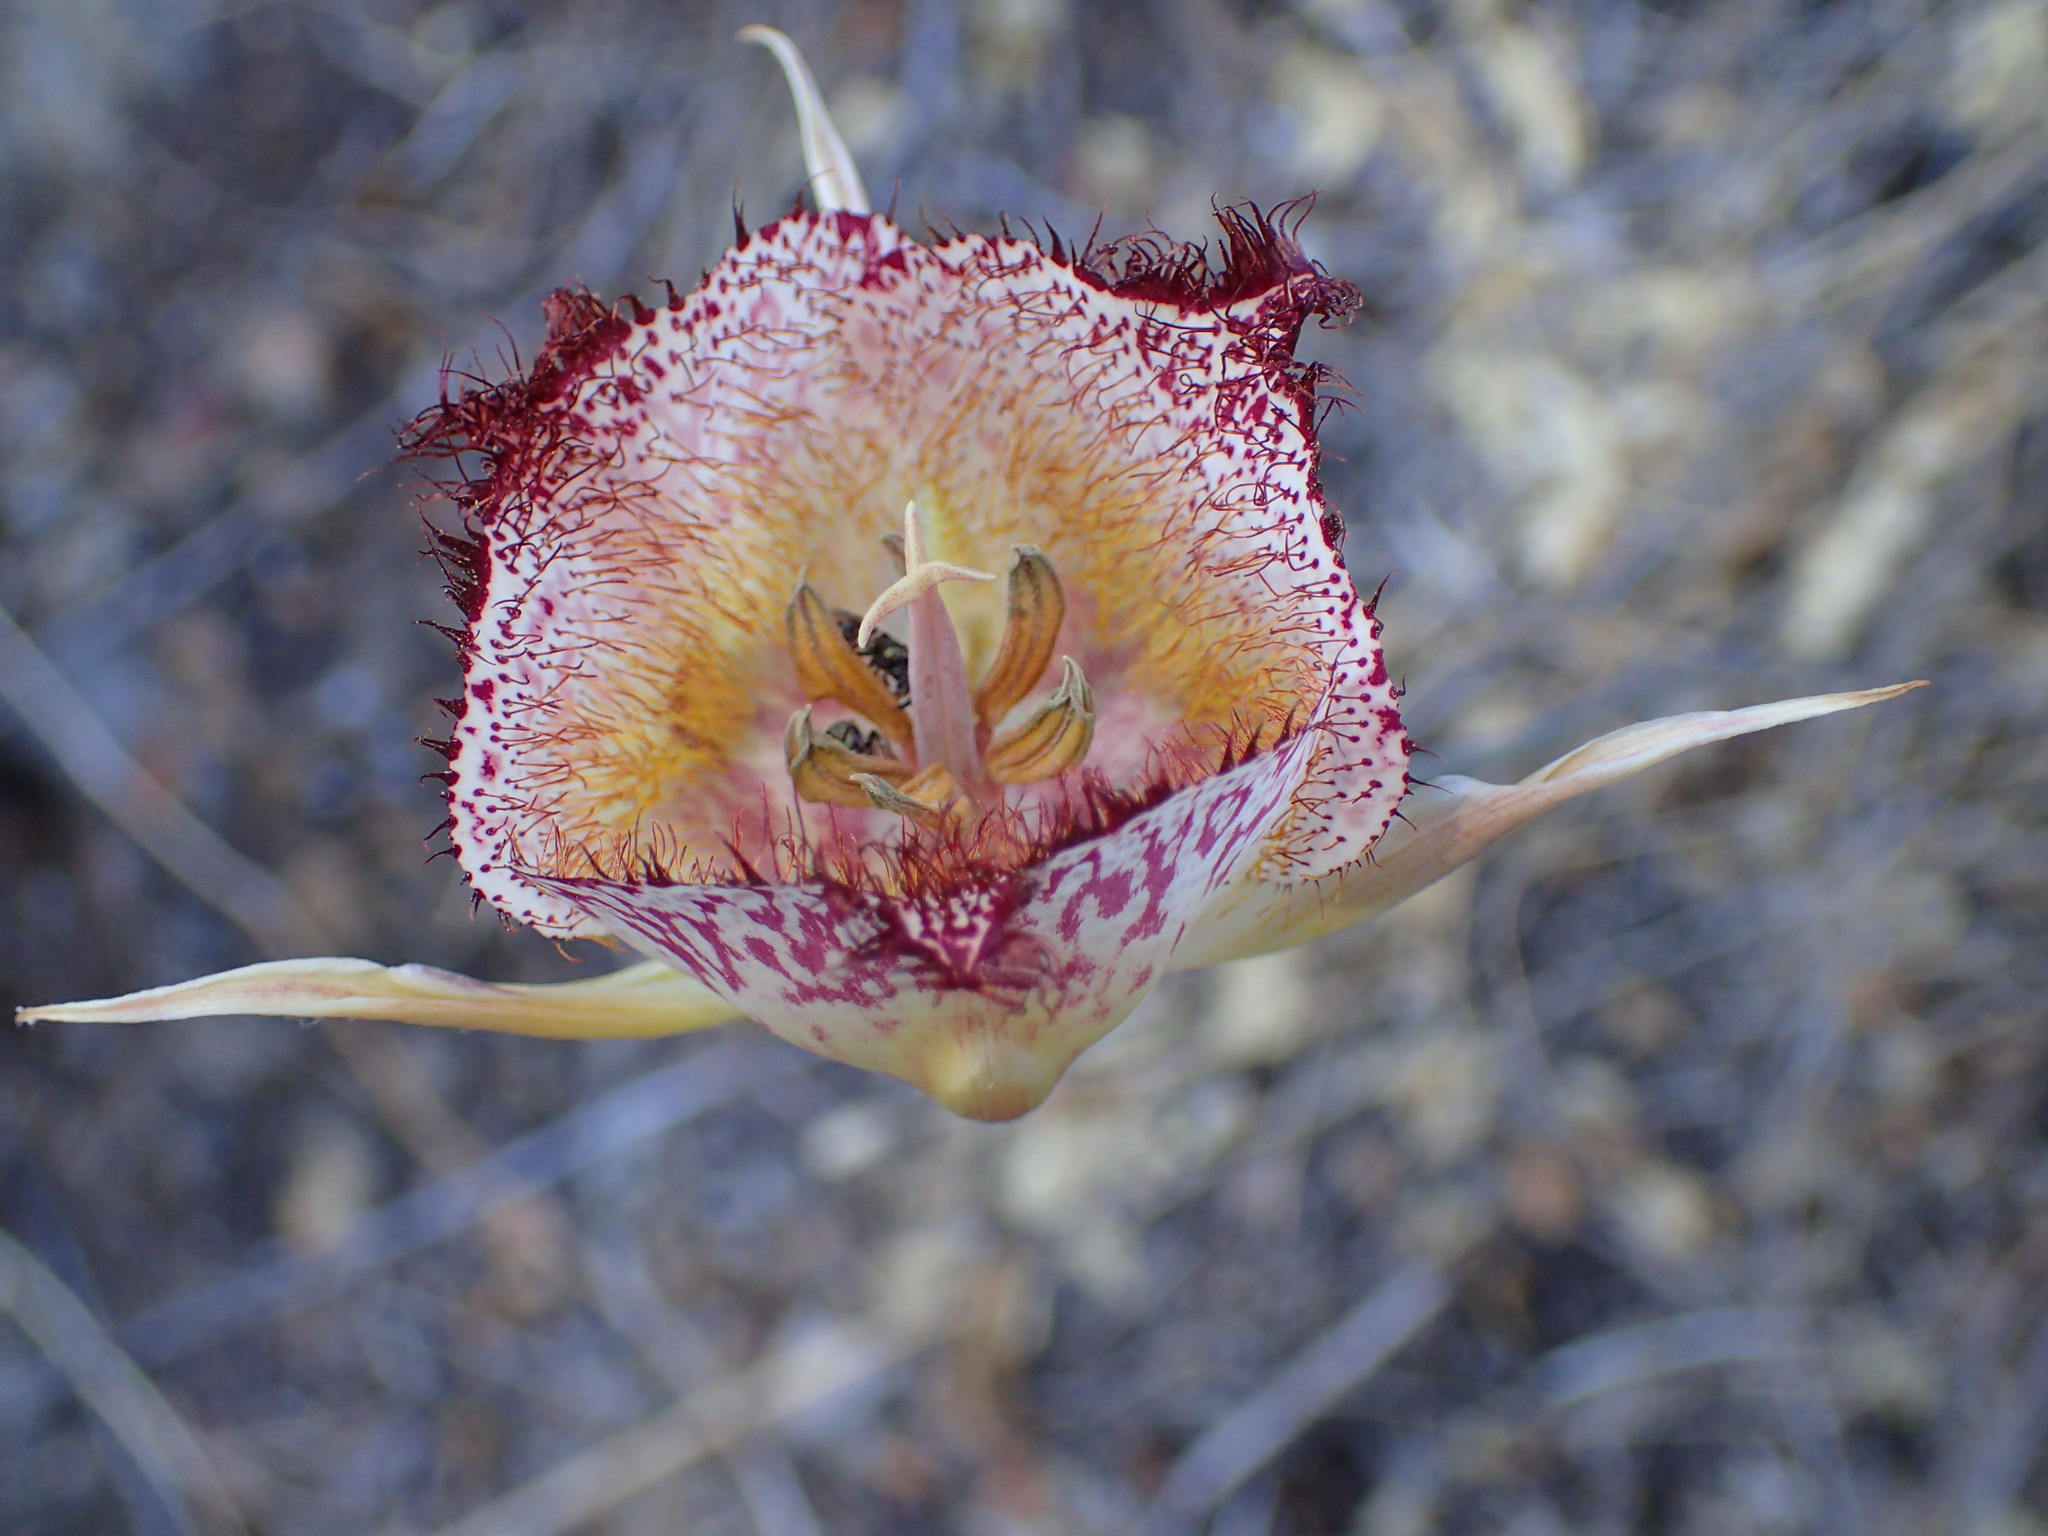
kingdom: Plantae
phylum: Tracheophyta
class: Liliopsida
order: Liliales
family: Liliaceae
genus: Calochortus
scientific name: Calochortus fimbriatus
